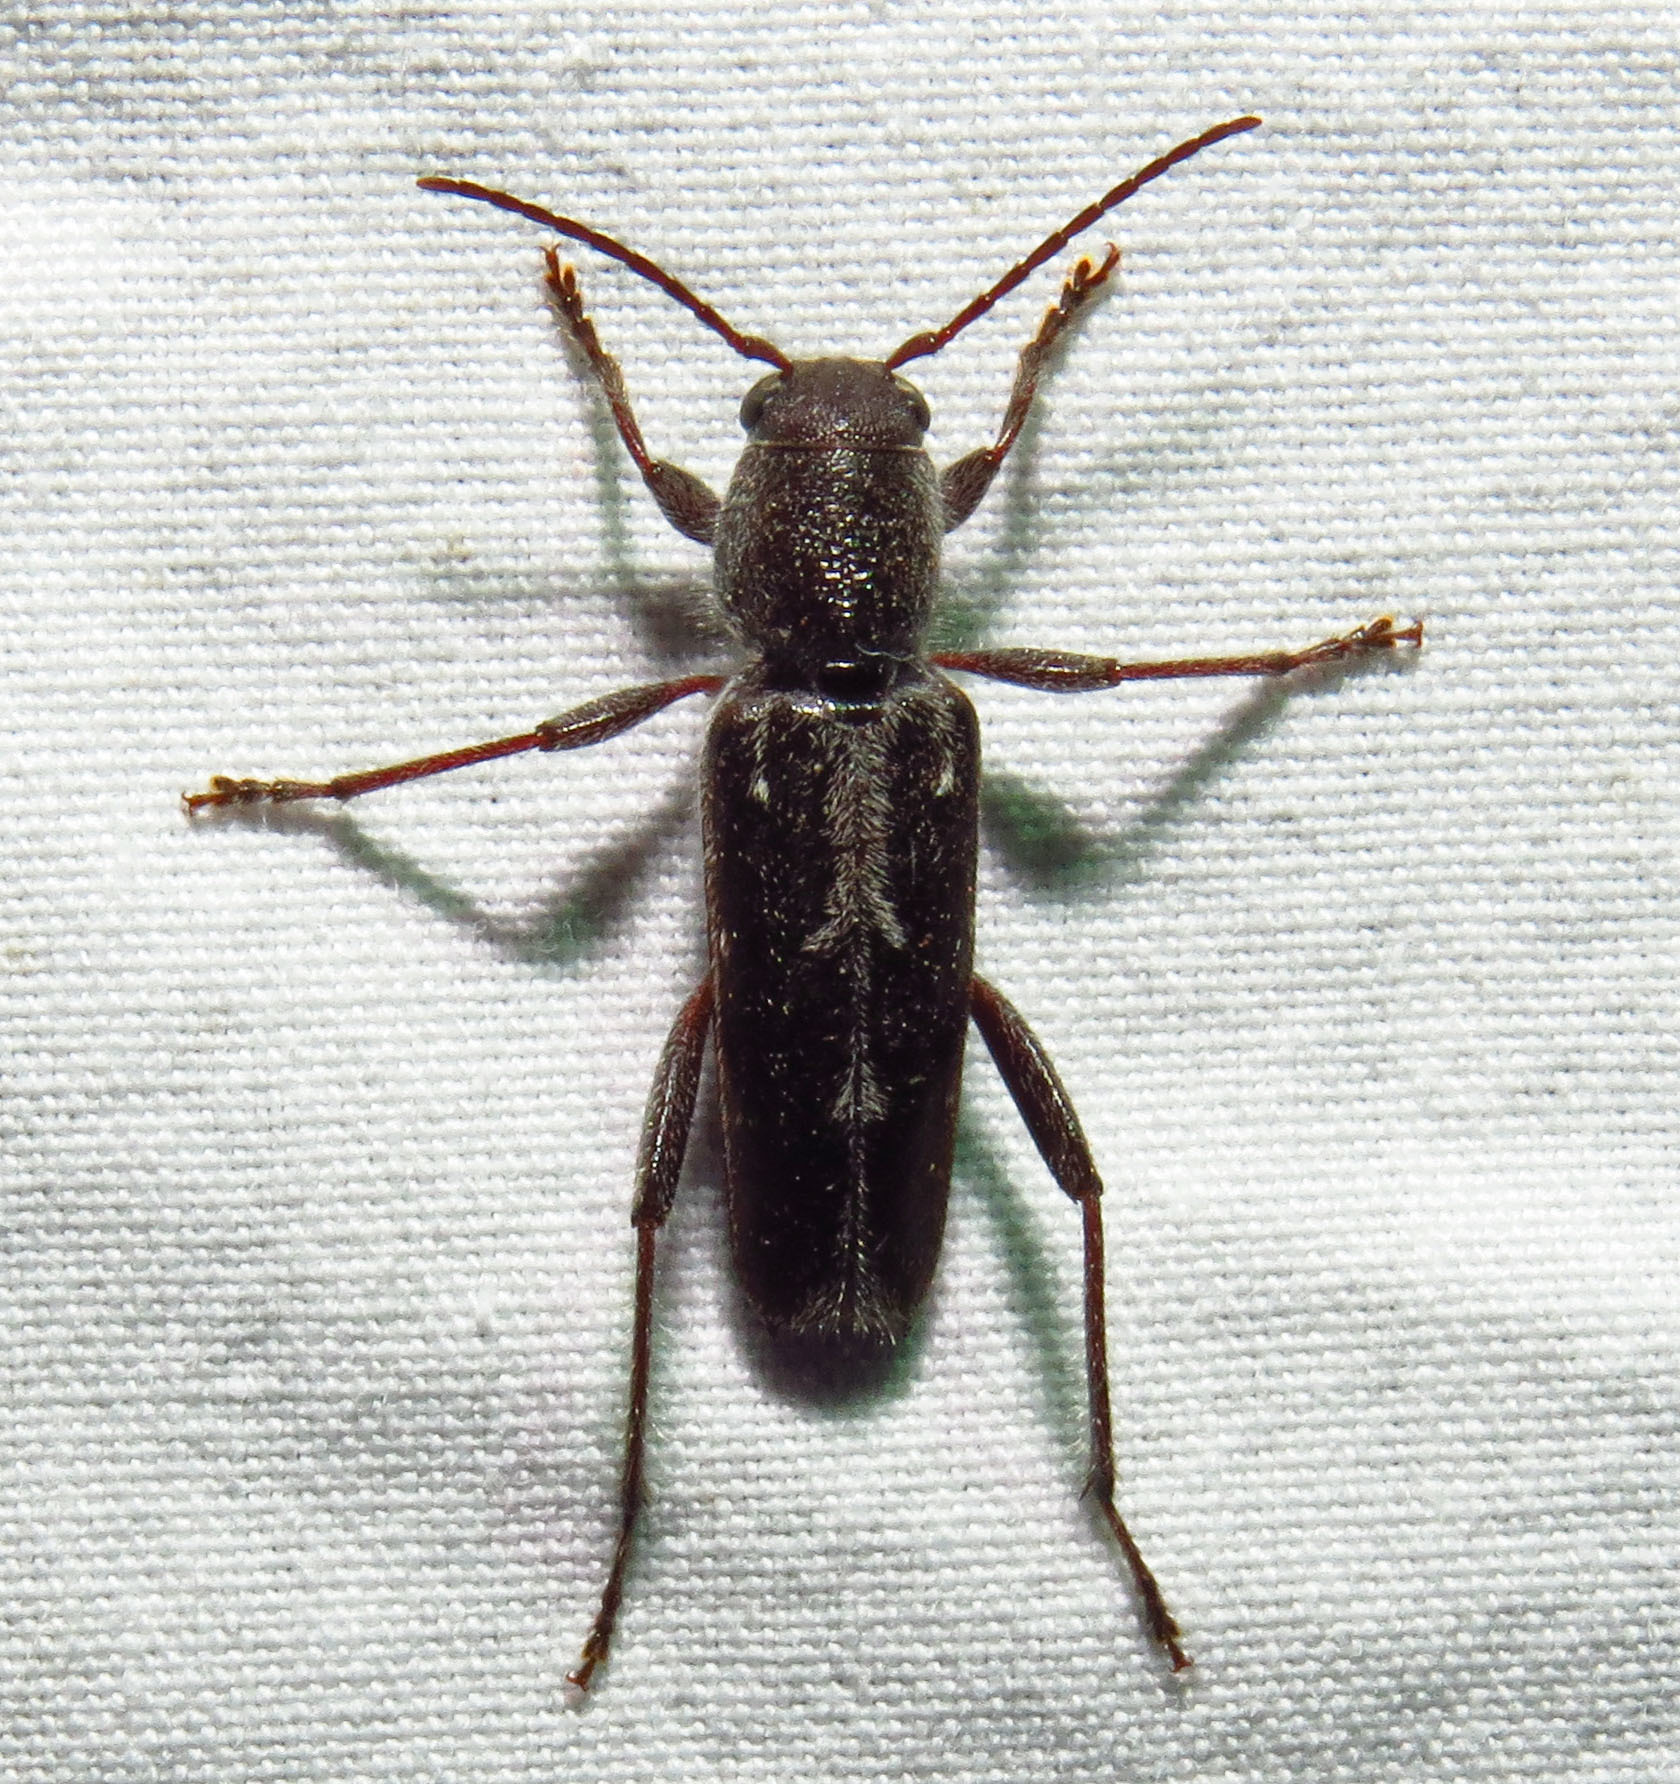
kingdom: Animalia
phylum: Arthropoda
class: Insecta
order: Coleoptera
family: Cerambycidae
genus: Xylotrechus
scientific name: Xylotrechus sagittatus
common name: Arrowhead borer
